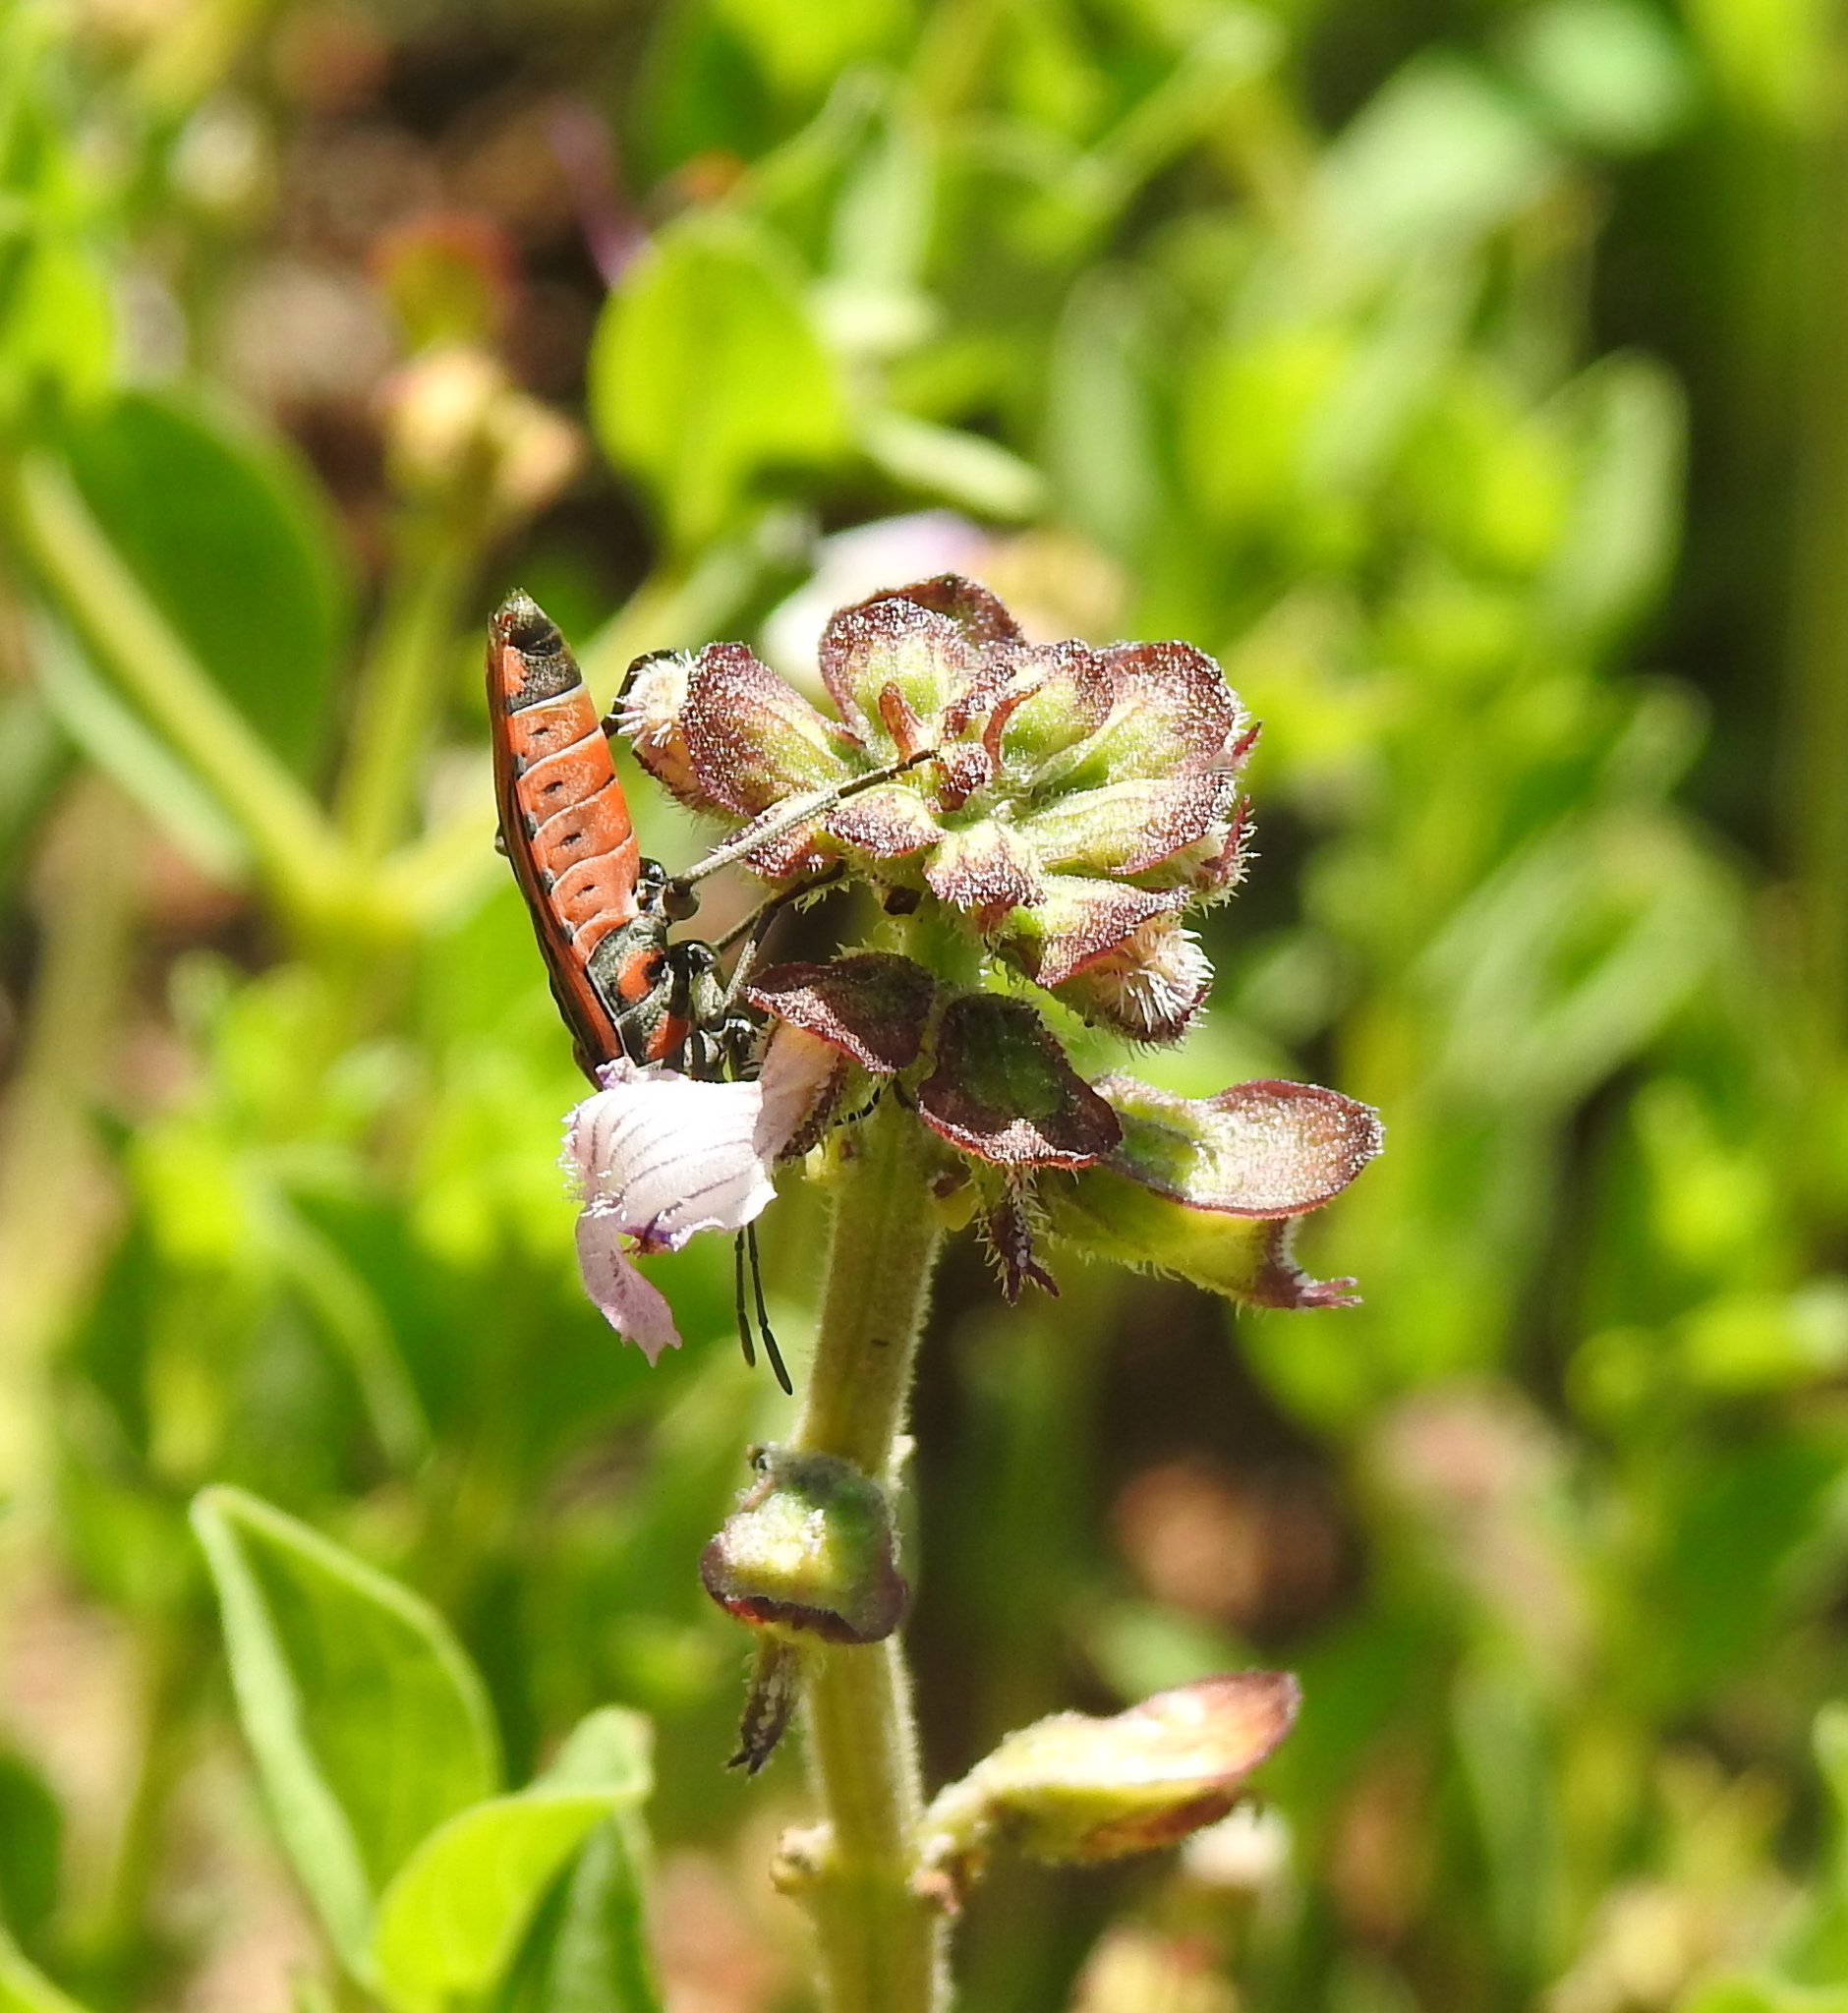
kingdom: Animalia
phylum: Arthropoda
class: Insecta
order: Hemiptera
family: Lygaeidae
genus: Spilostethus
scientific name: Spilostethus rivularis
